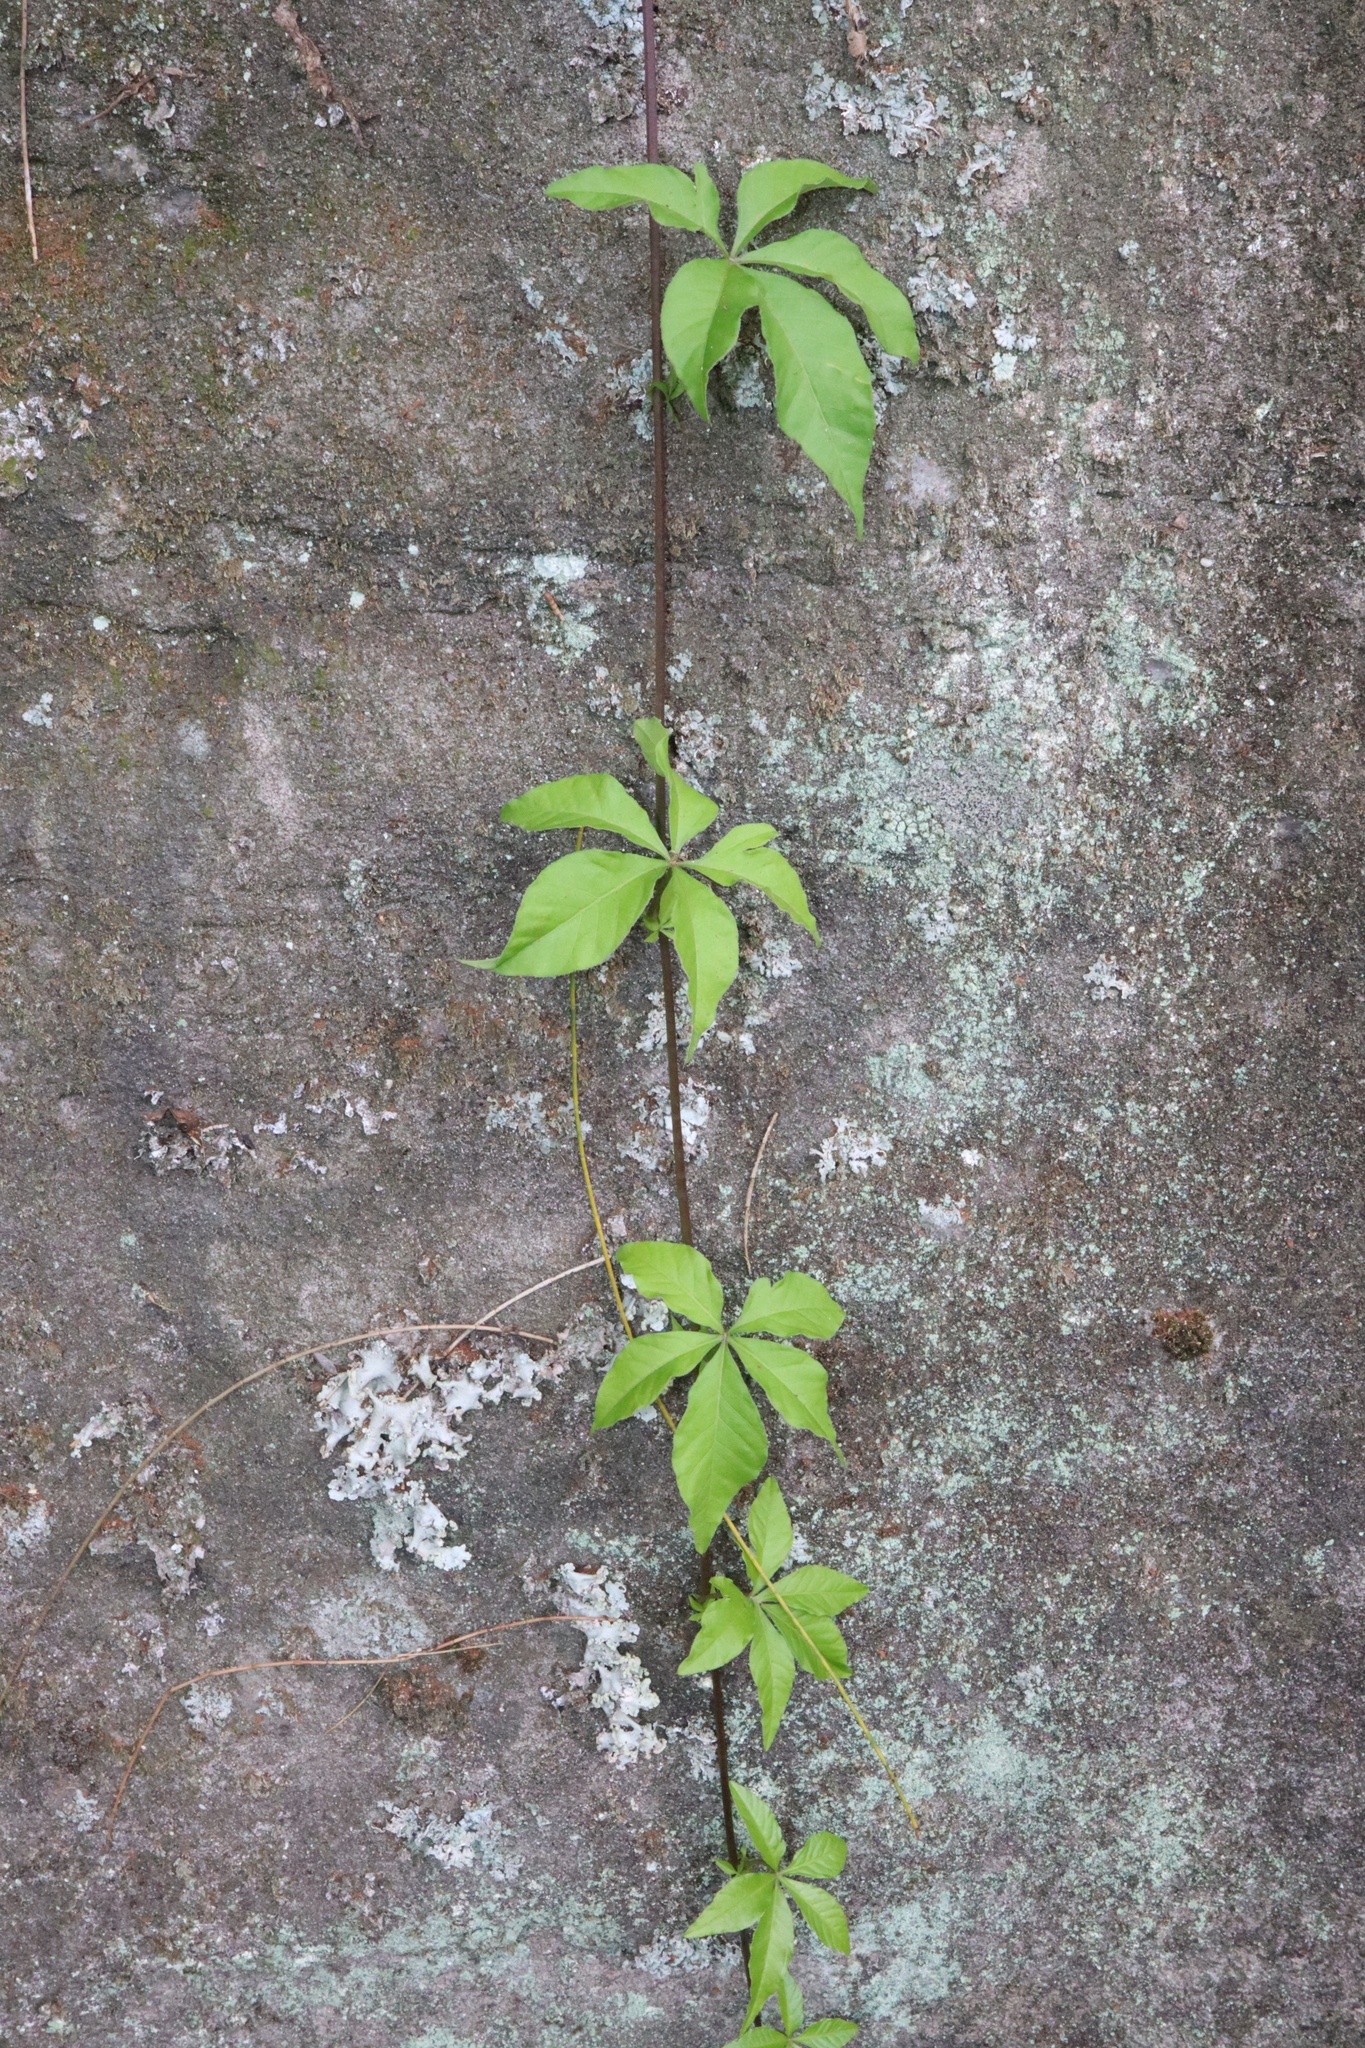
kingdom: Plantae
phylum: Tracheophyta
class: Magnoliopsida
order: Solanales
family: Convolvulaceae
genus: Ipomoea
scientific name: Ipomoea cairica
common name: Mile a minute vine
